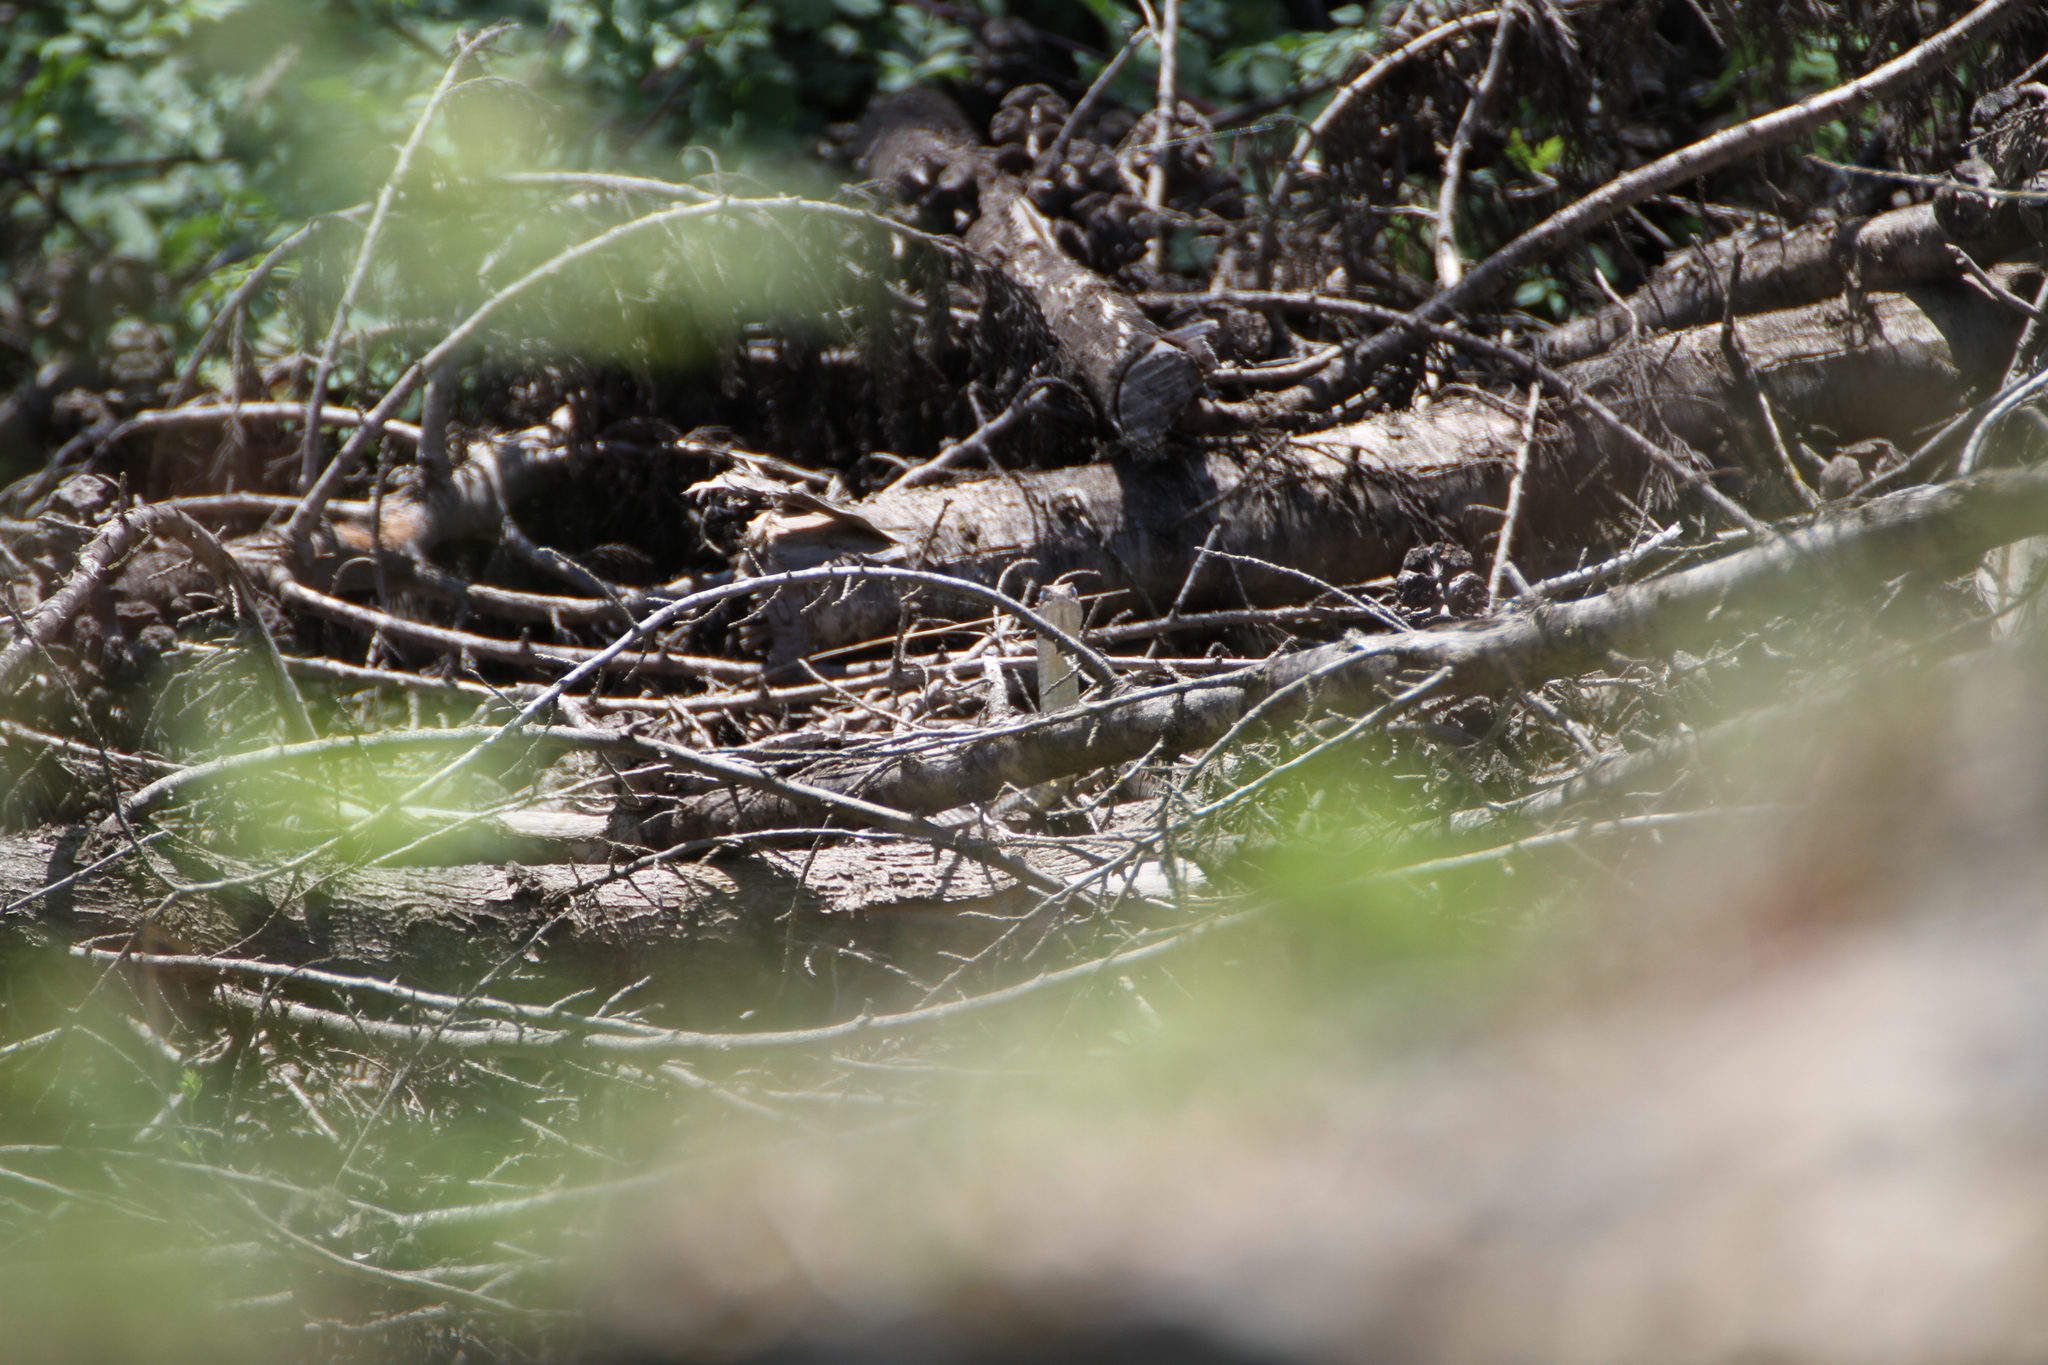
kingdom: Animalia
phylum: Chordata
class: Squamata
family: Psammophiidae
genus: Malpolon
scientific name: Malpolon monspessulanus
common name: Montpellier snake
